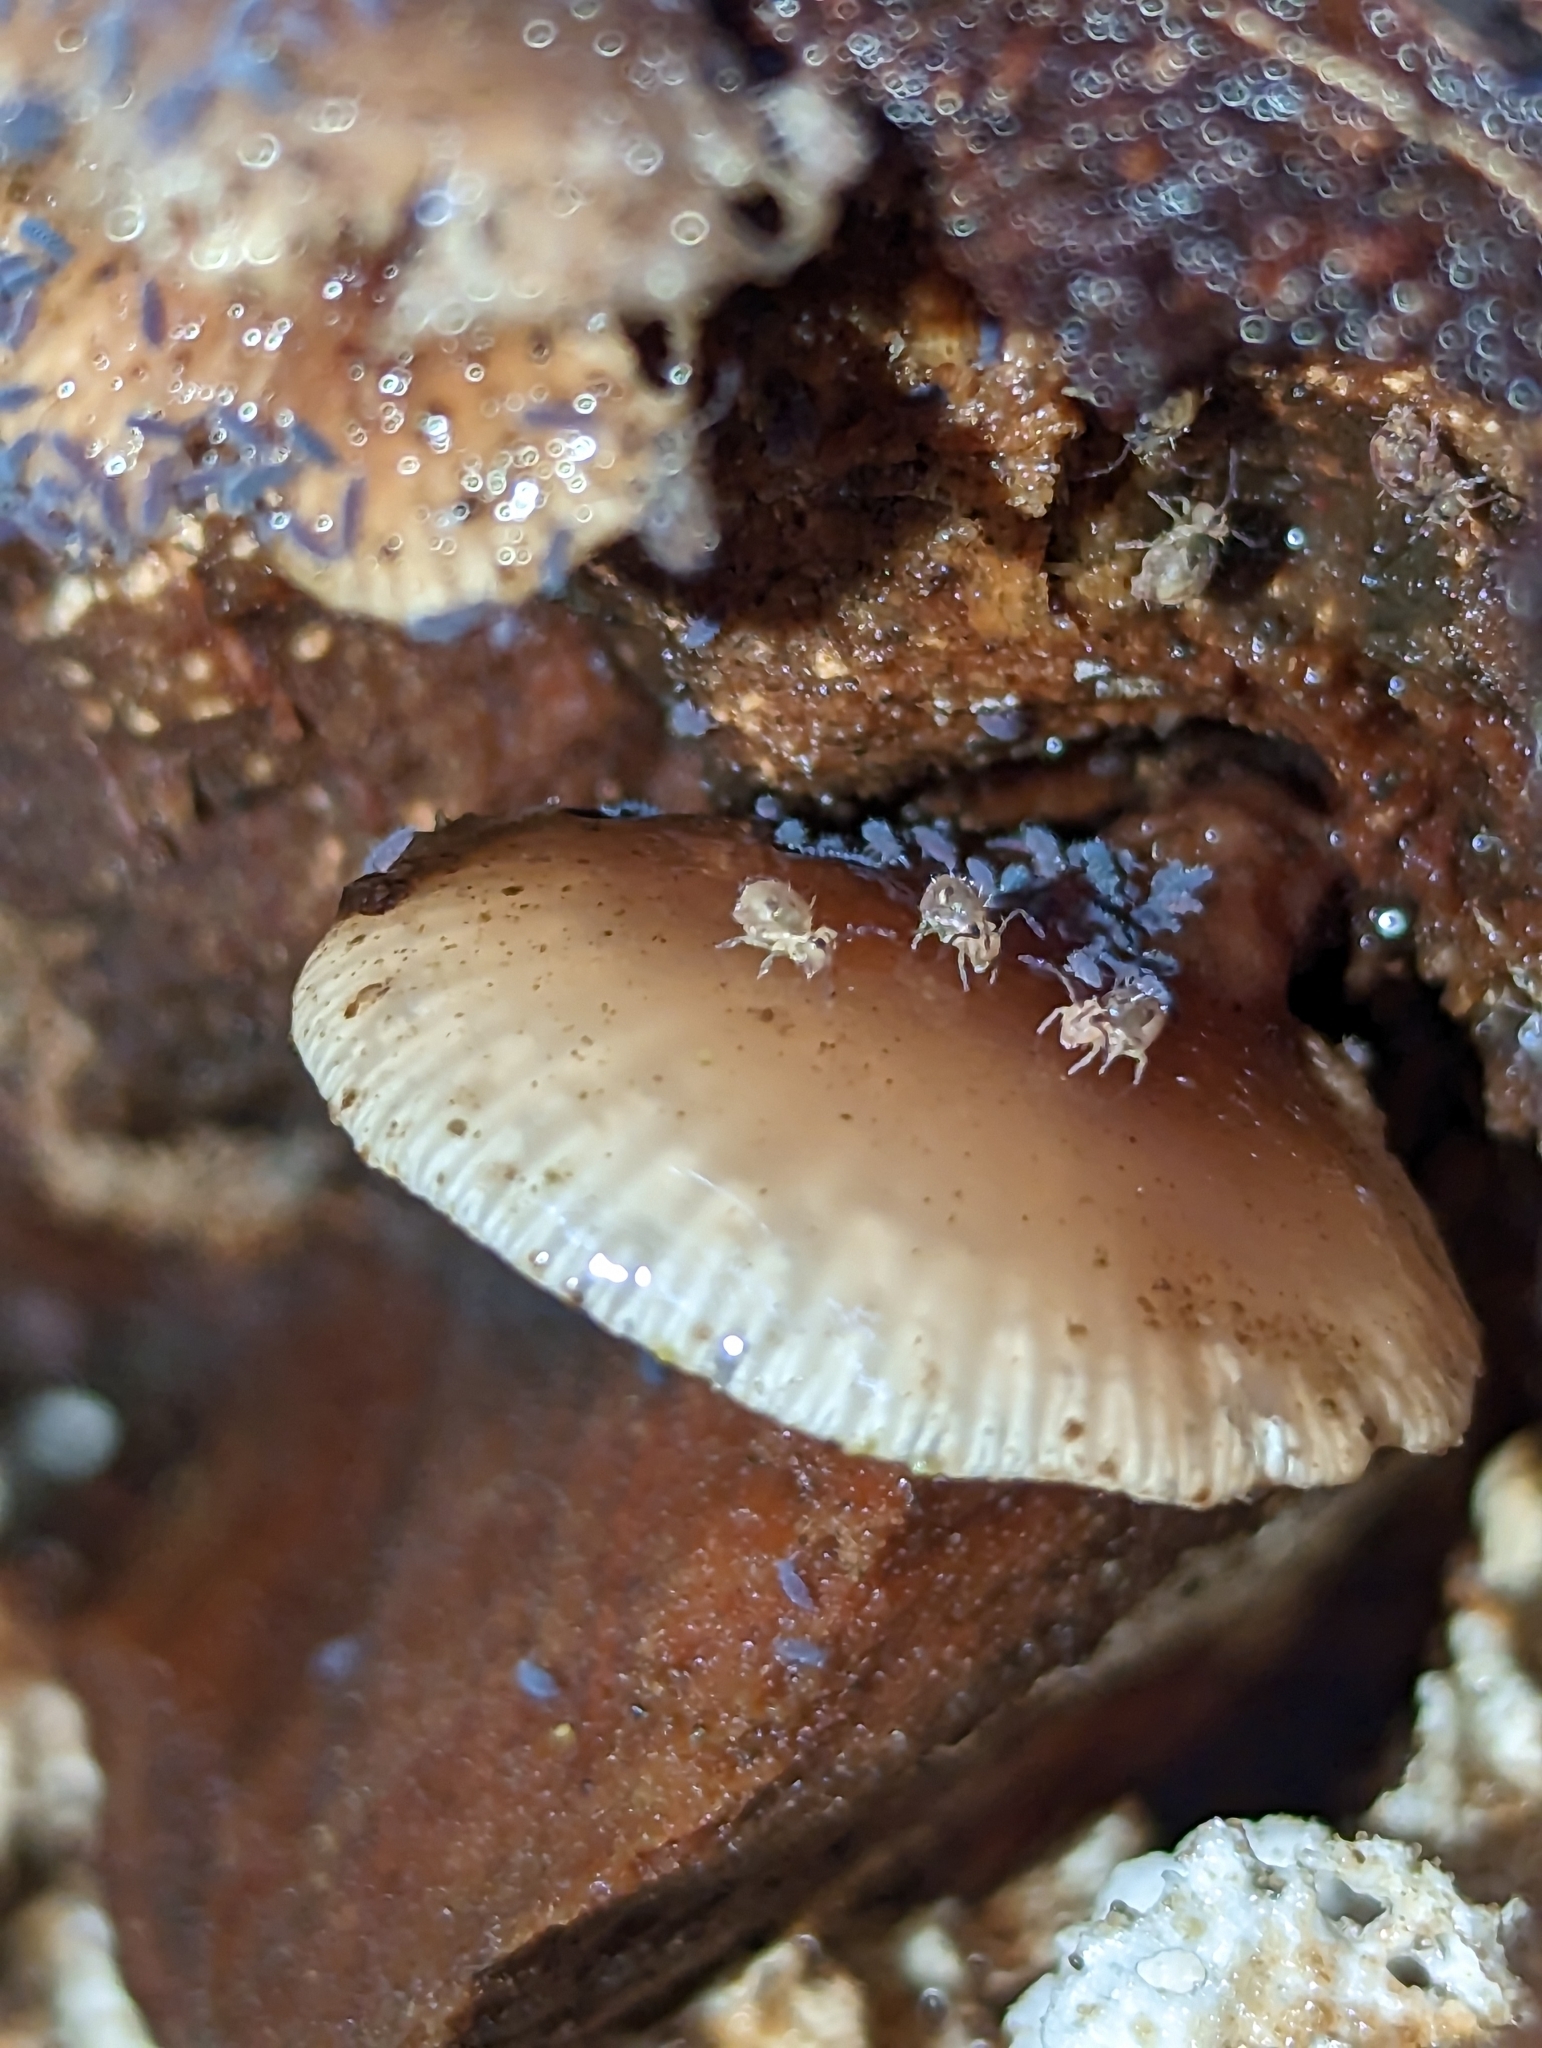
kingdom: Fungi
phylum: Basidiomycota
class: Agaricomycetes
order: Agaricales
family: Mycenaceae
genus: Panellus
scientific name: Panellus longinquus
